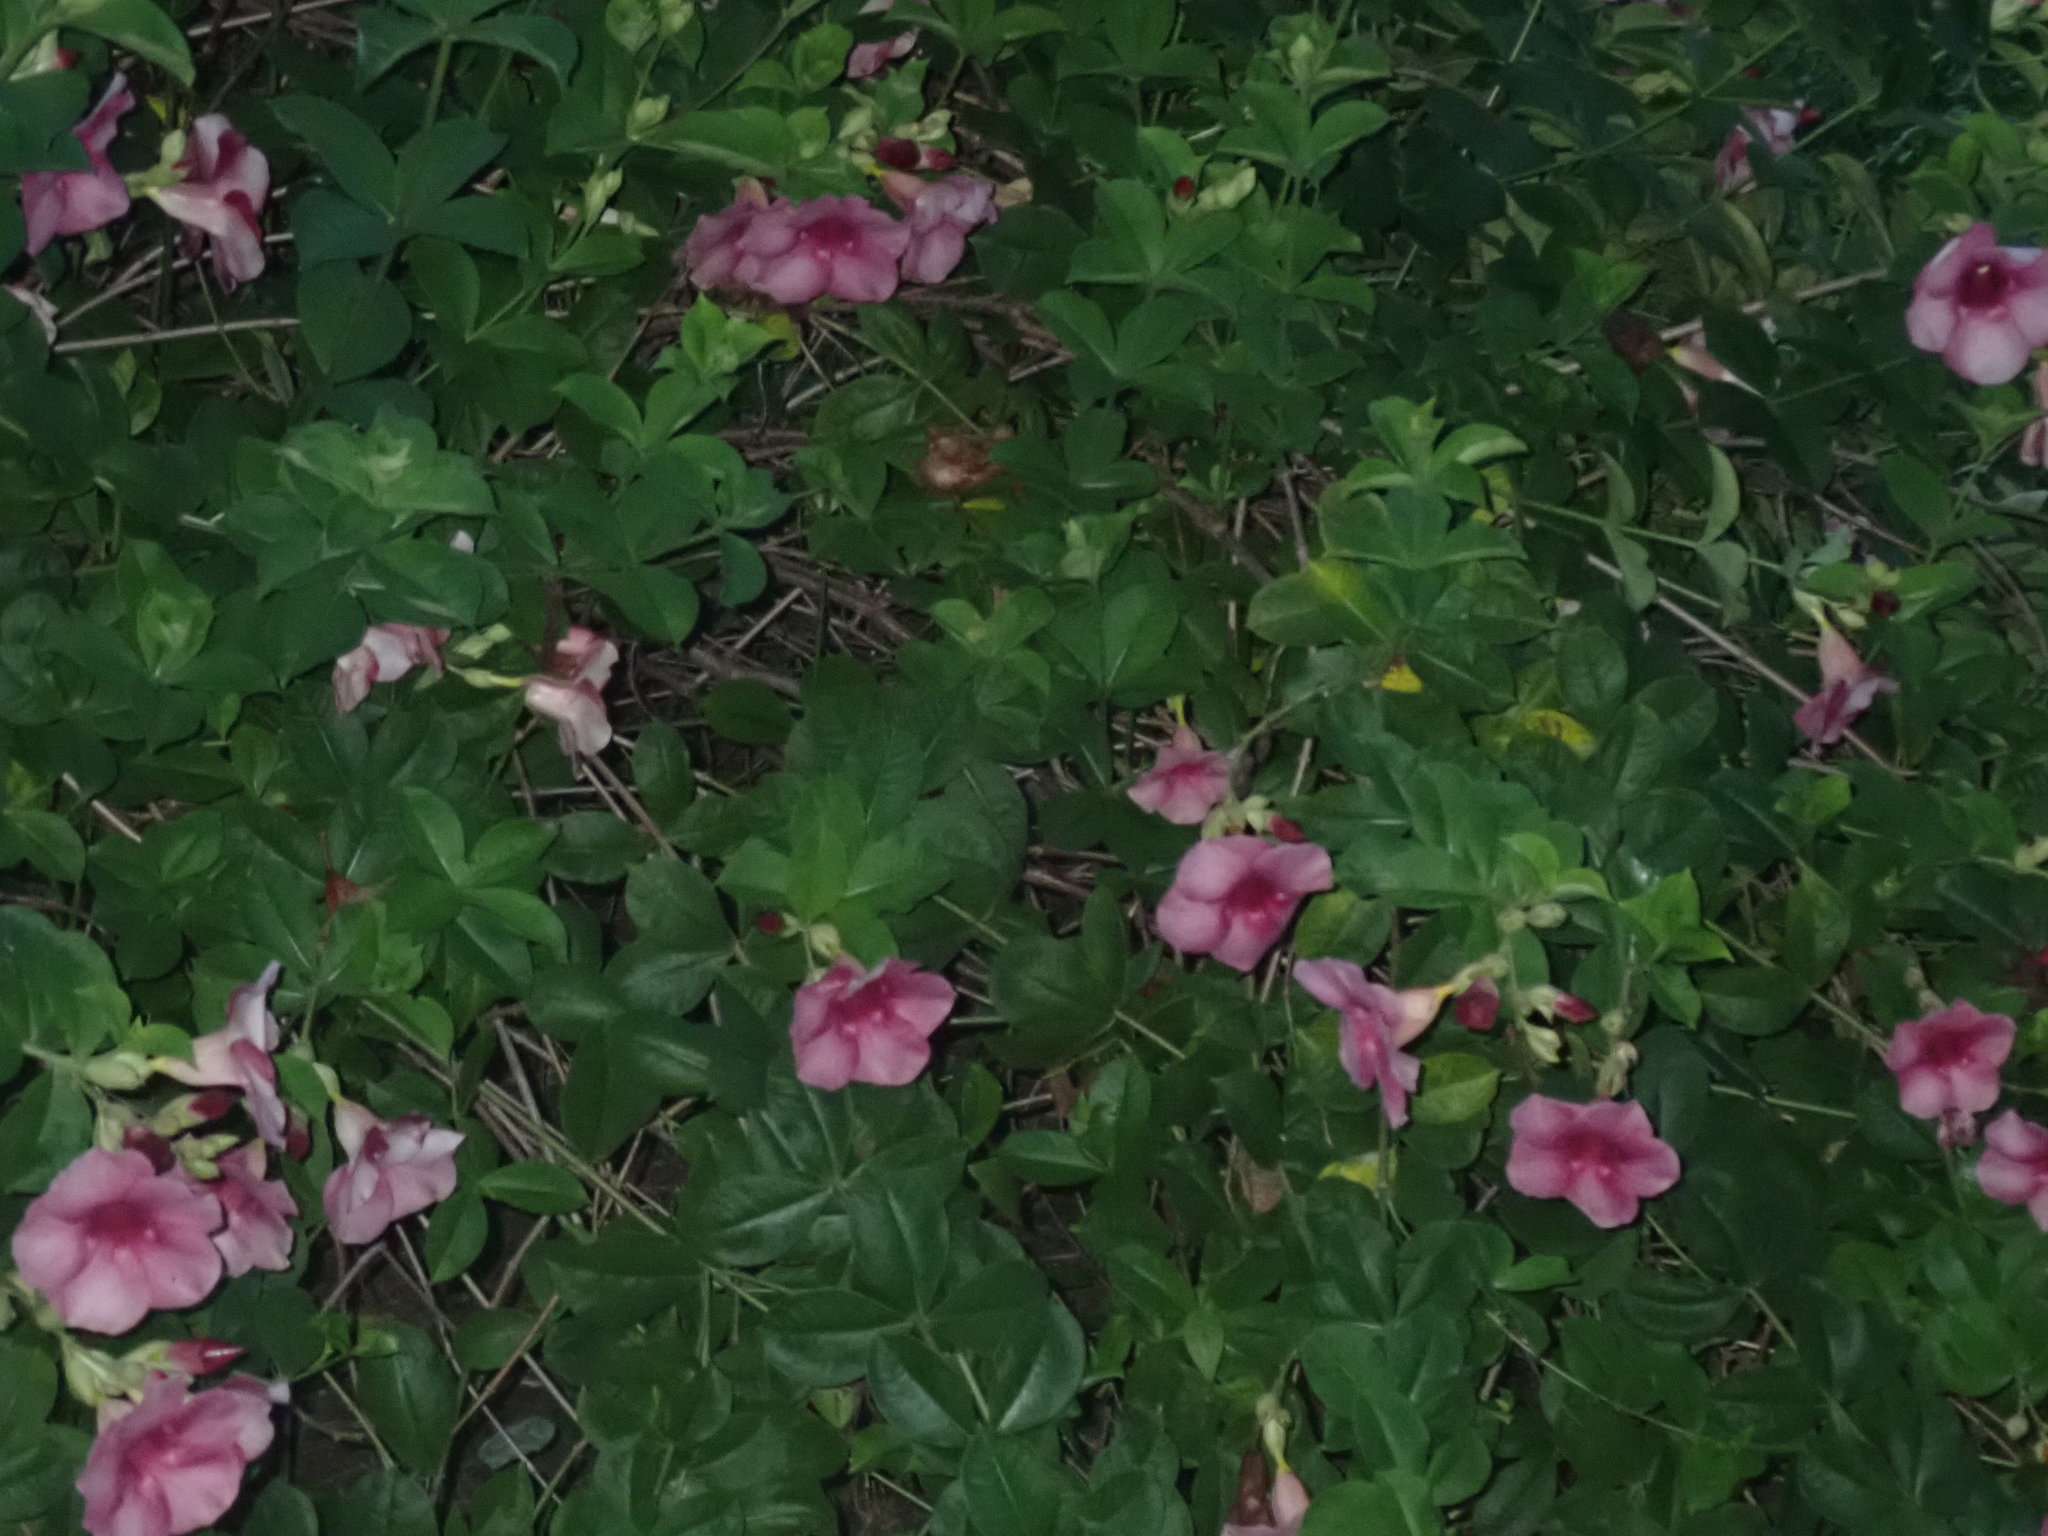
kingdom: Plantae
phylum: Tracheophyta
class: Magnoliopsida
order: Gentianales
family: Apocynaceae
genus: Allamanda
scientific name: Allamanda blanchetii
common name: Purple allamanda
